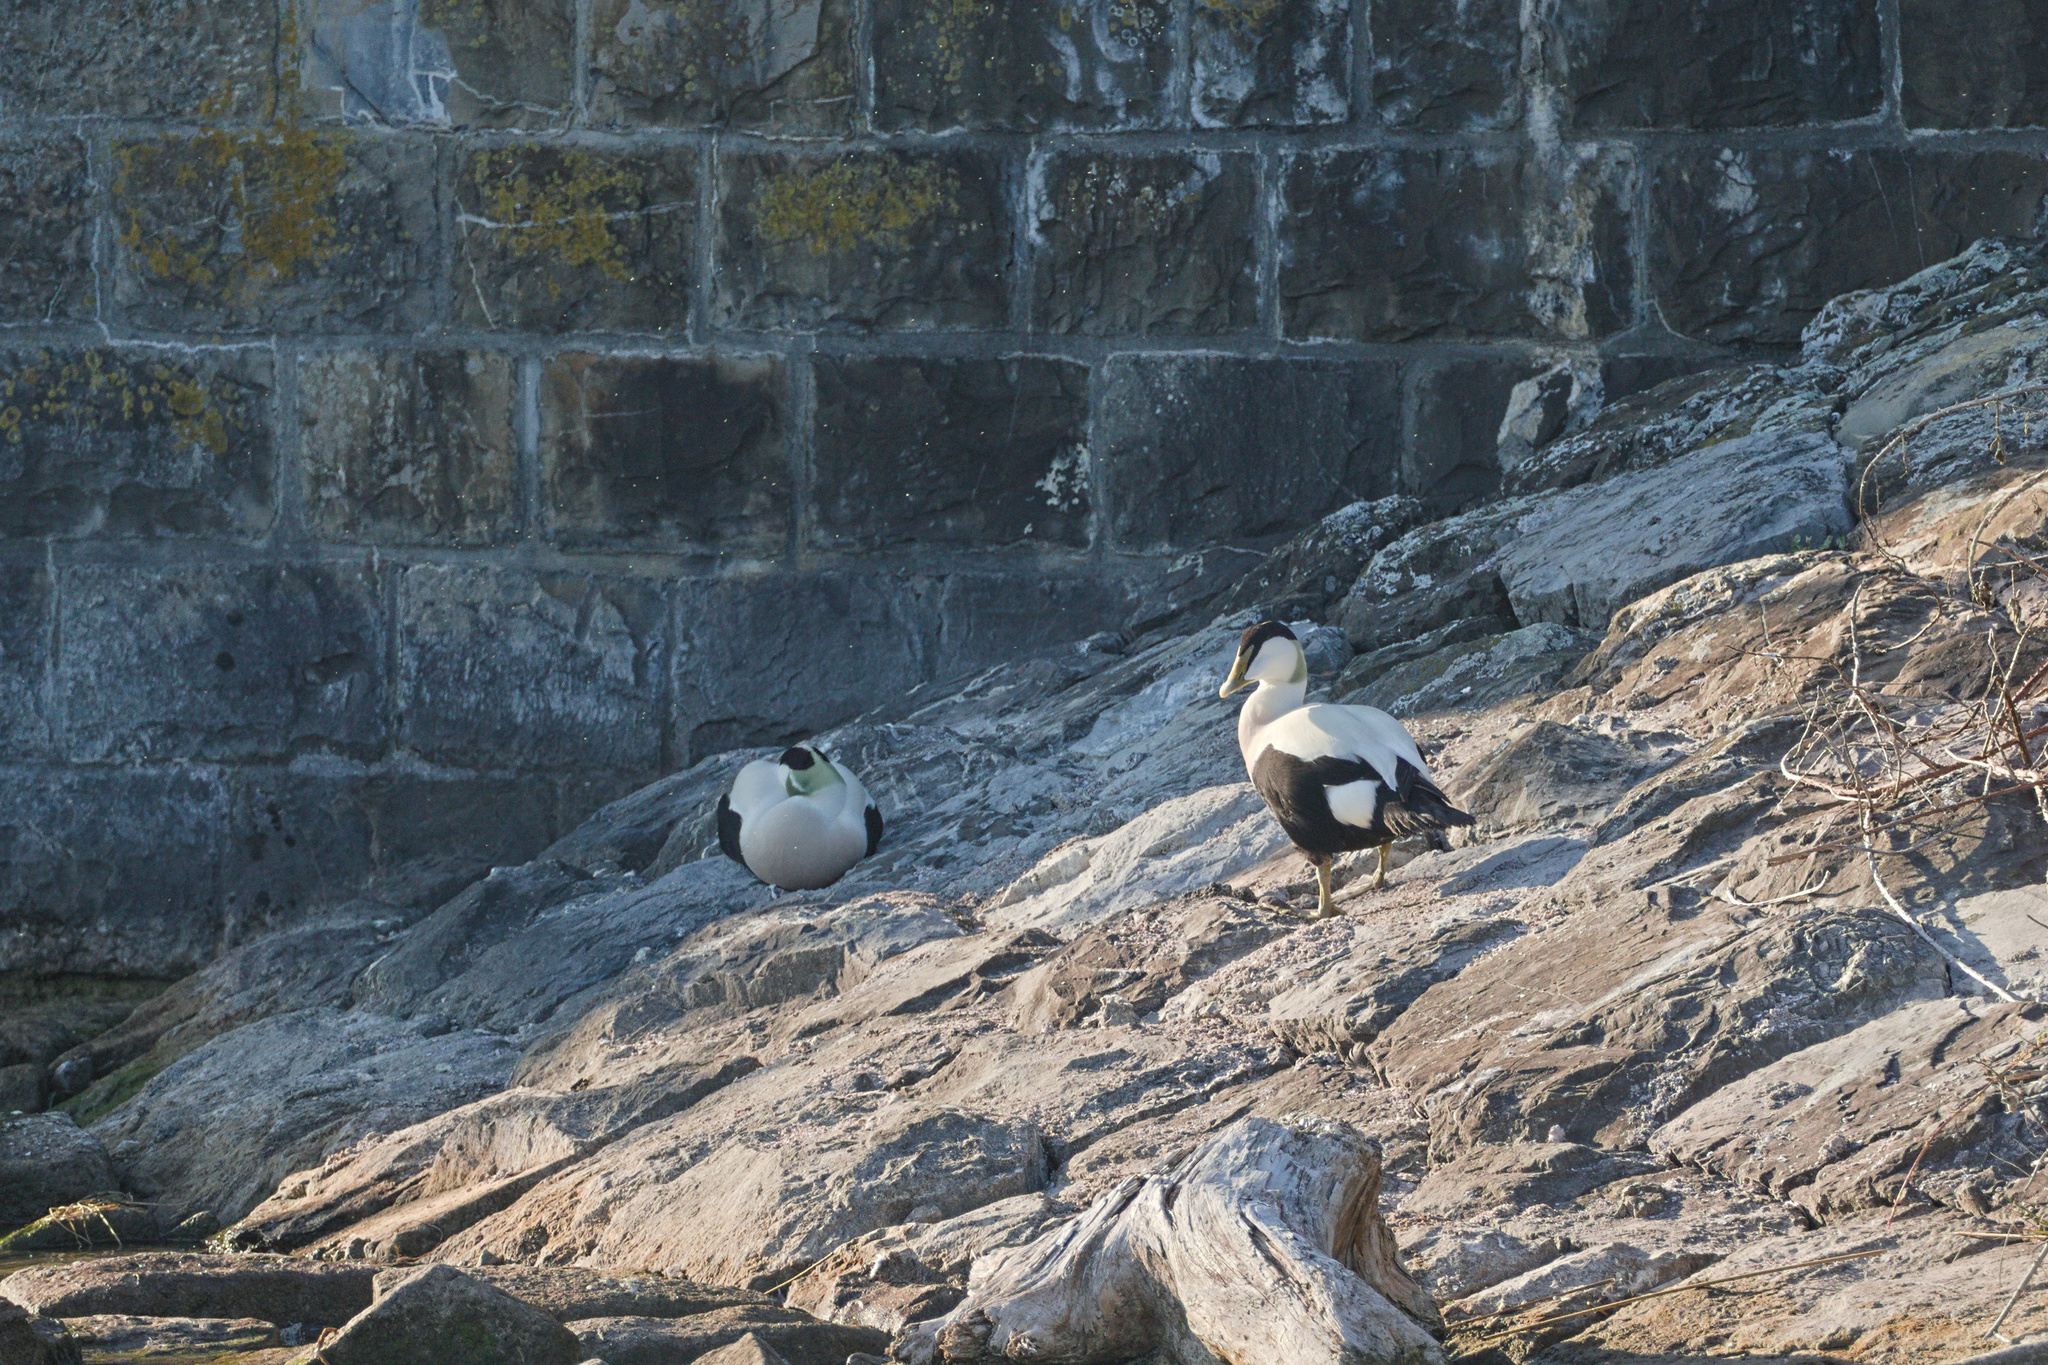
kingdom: Animalia
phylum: Chordata
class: Aves
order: Anseriformes
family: Anatidae
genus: Somateria
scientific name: Somateria mollissima
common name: Common eider
